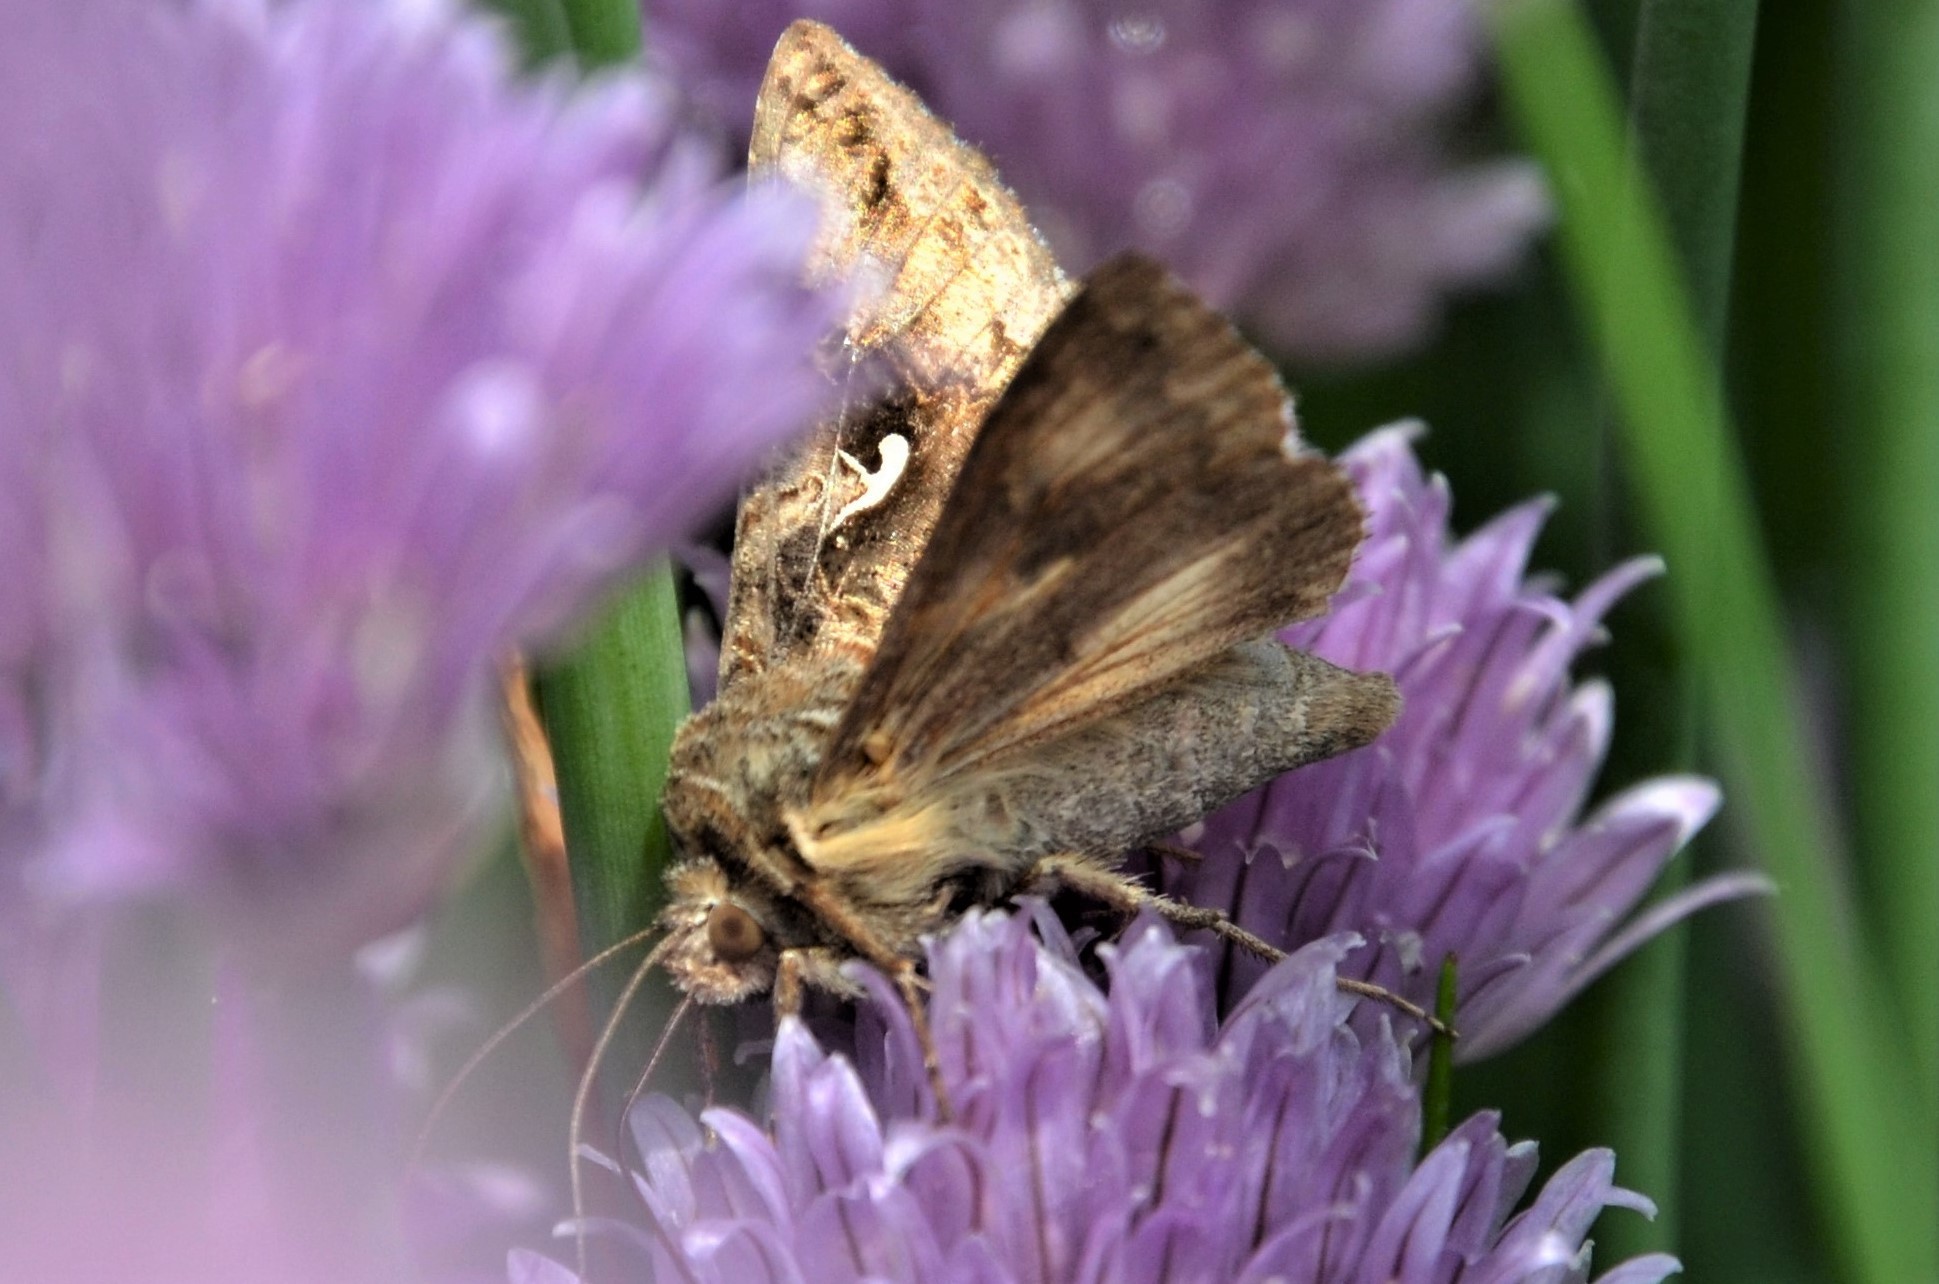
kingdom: Animalia
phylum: Arthropoda
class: Insecta
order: Lepidoptera
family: Noctuidae
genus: Autographa
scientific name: Autographa gamma
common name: Silver y
